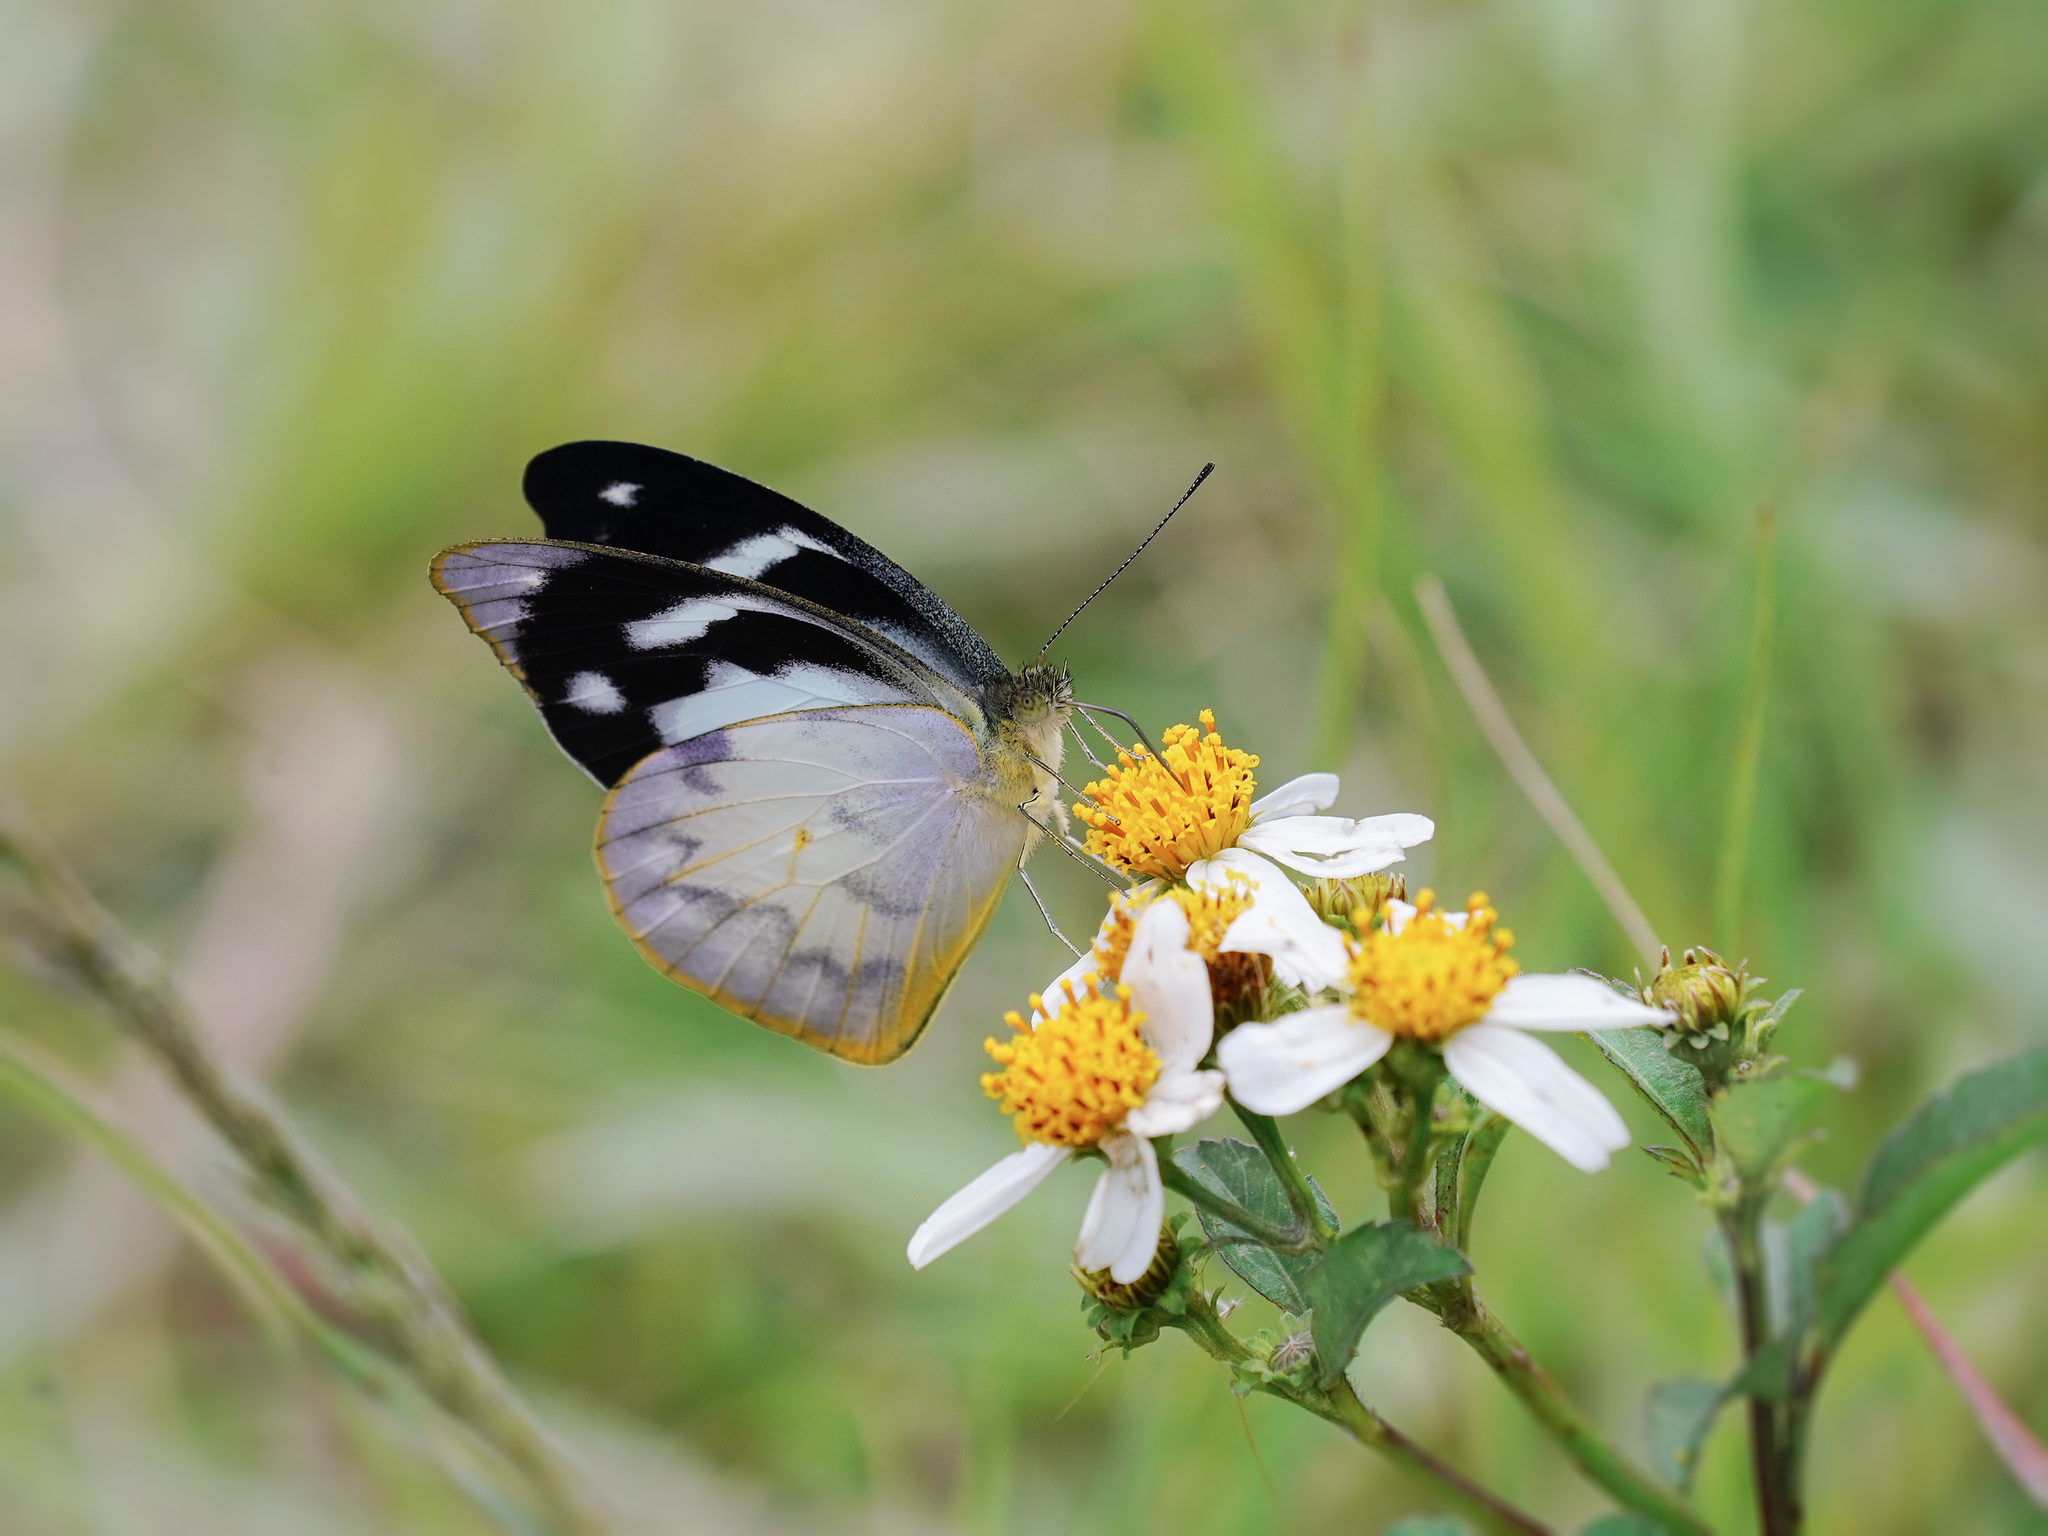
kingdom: Animalia
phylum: Arthropoda
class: Insecta
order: Lepidoptera
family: Pieridae
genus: Appias
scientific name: Appias pandione
